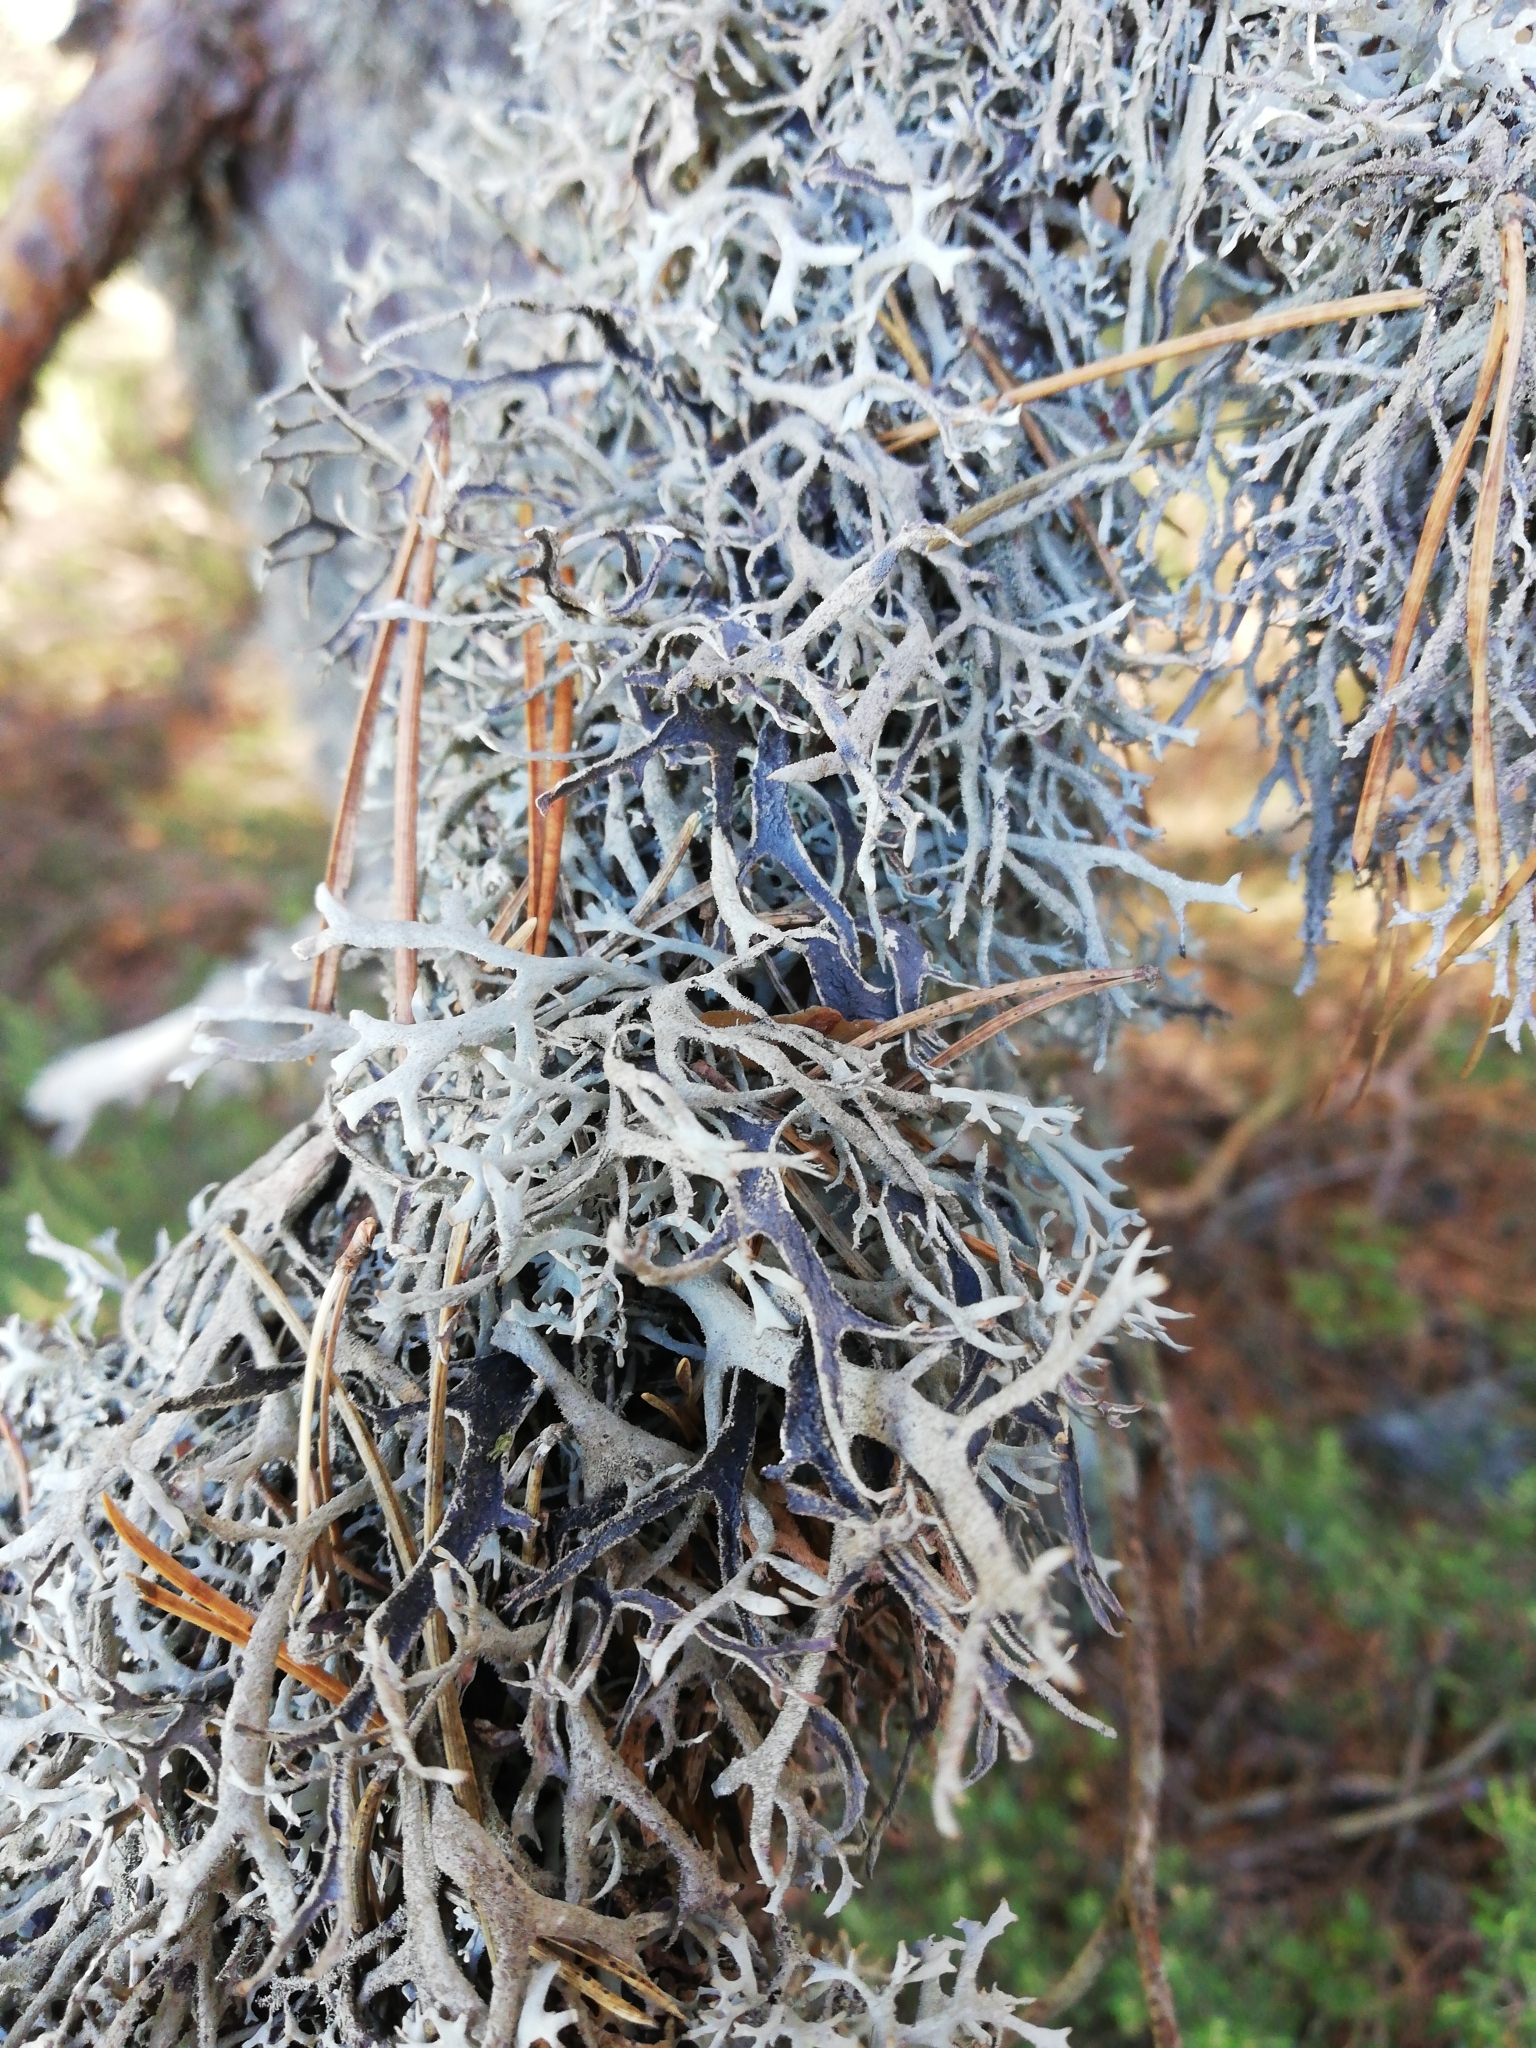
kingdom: Fungi
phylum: Ascomycota
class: Lecanoromycetes
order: Lecanorales
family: Parmeliaceae
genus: Pseudevernia
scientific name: Pseudevernia furfuracea
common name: Tree moss
